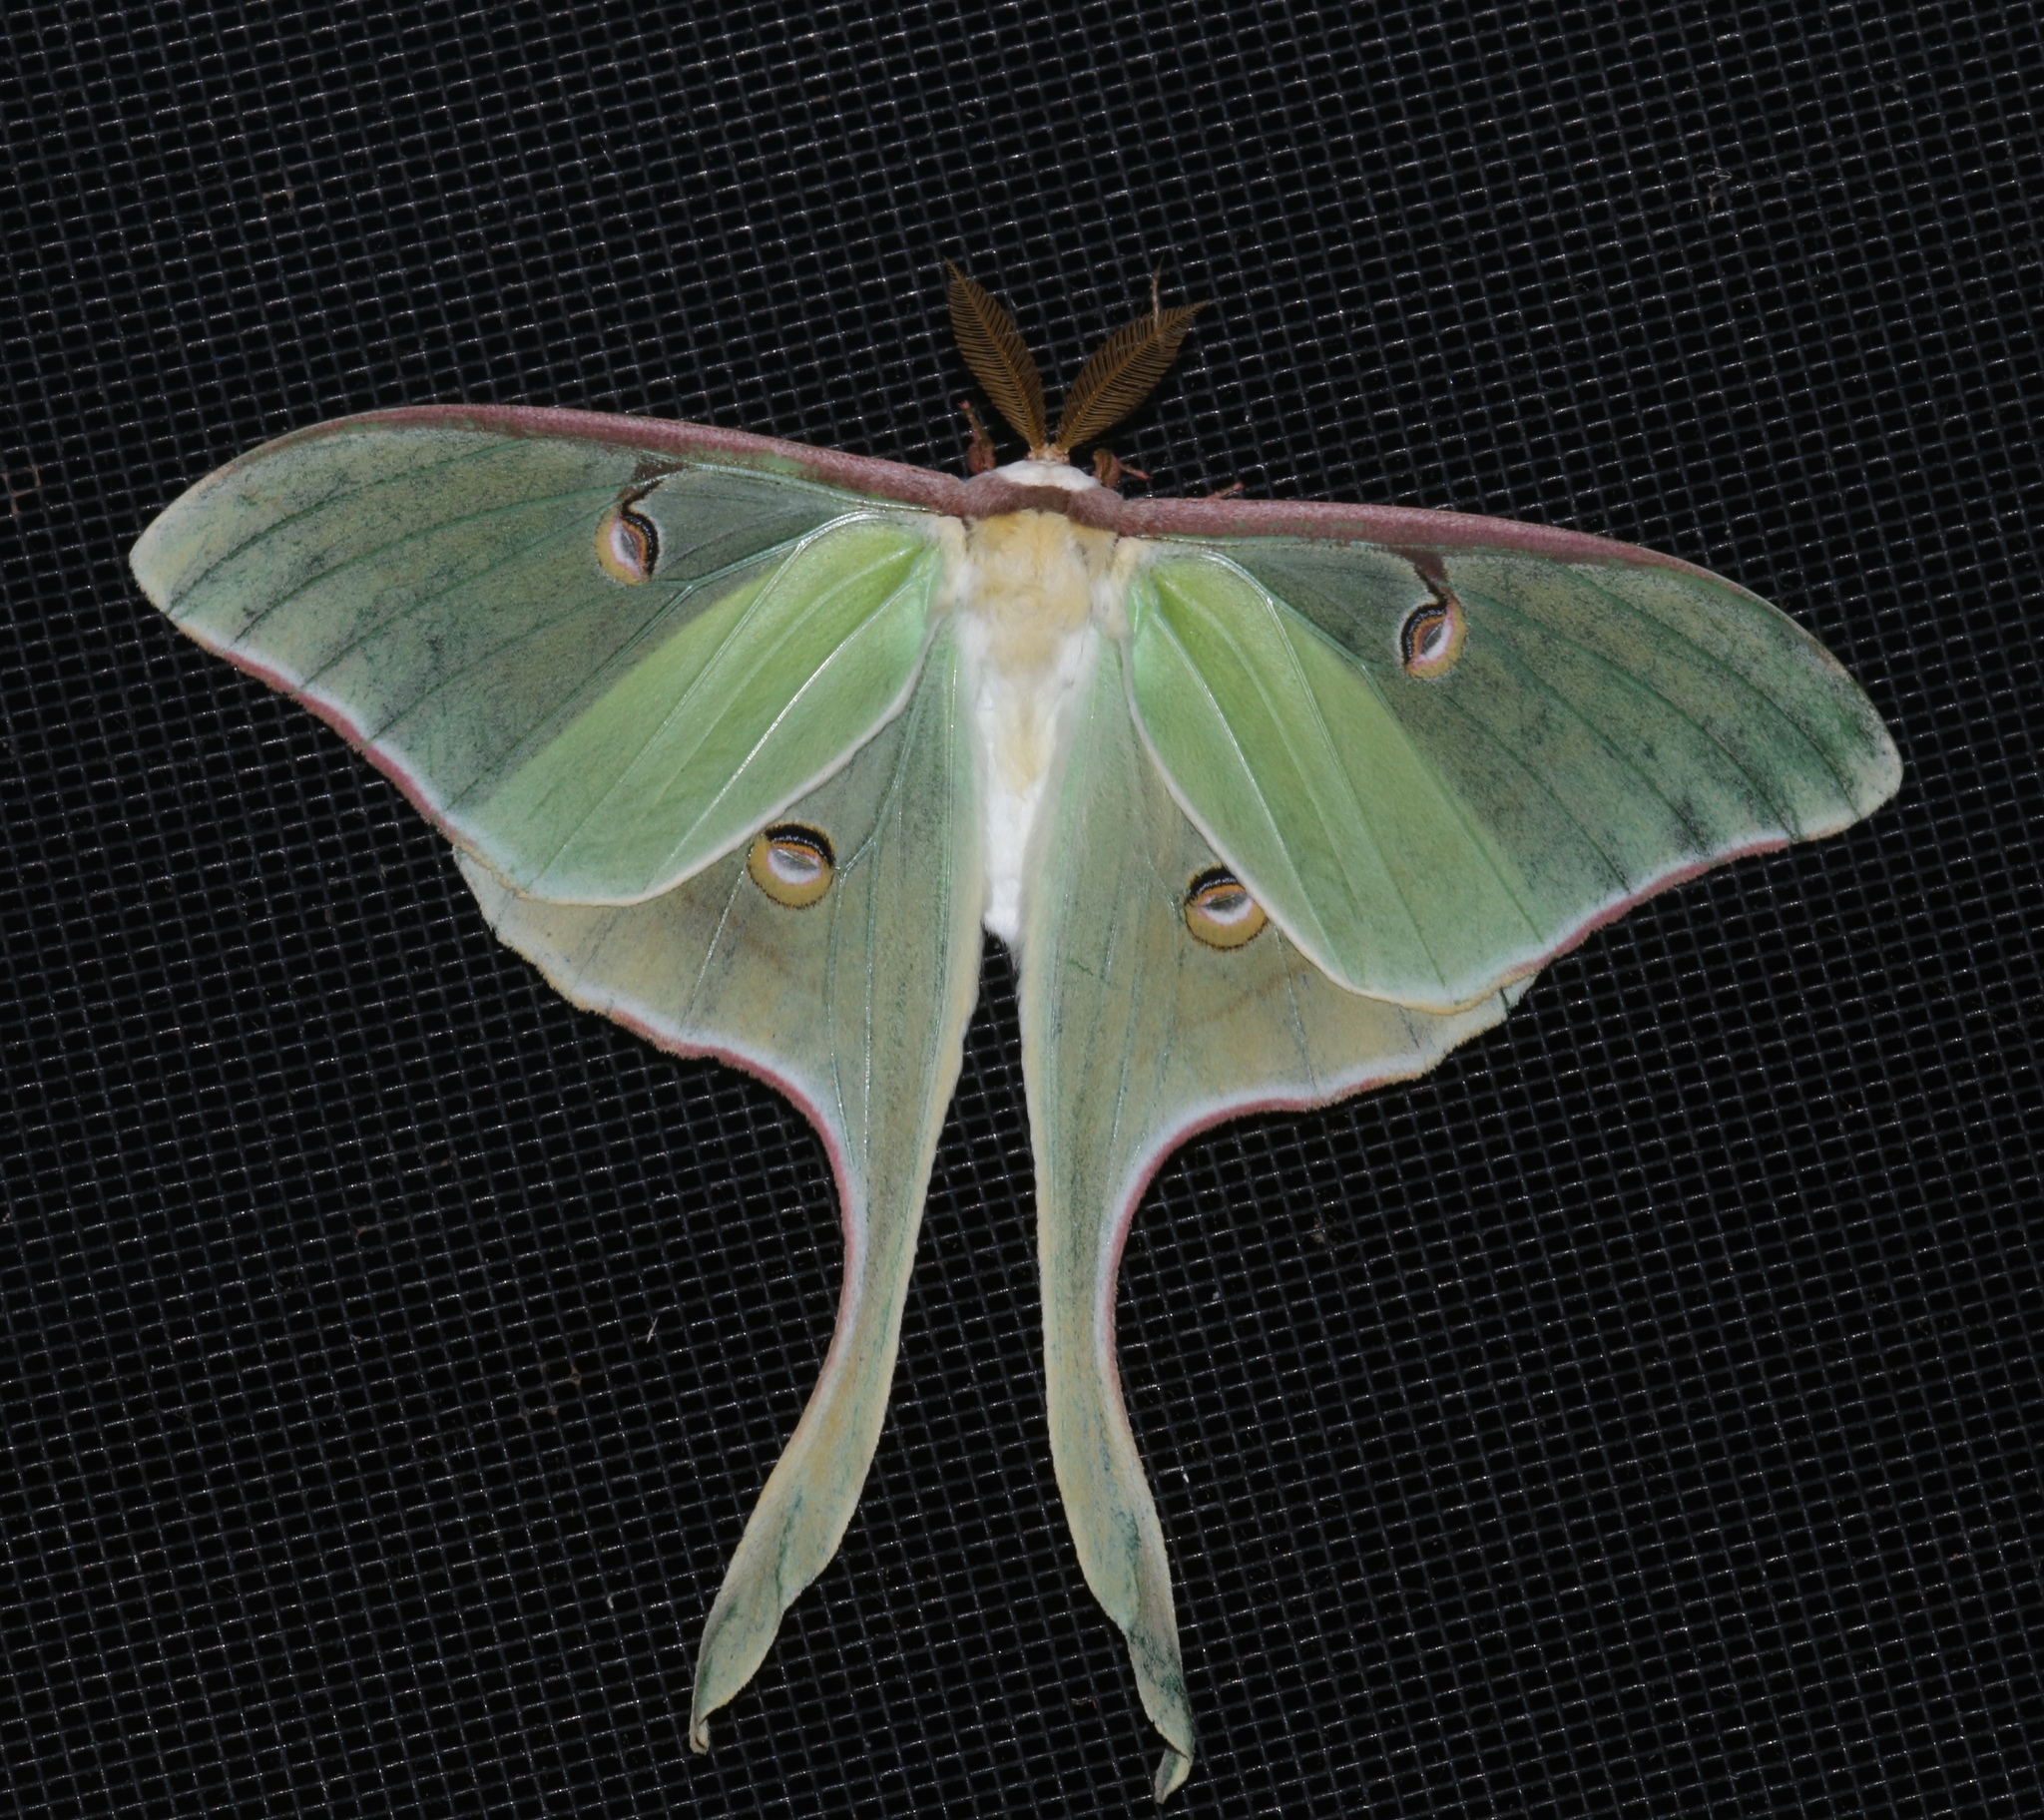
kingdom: Animalia
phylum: Arthropoda
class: Insecta
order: Lepidoptera
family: Saturniidae
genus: Actias
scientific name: Actias luna
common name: Luna moth
